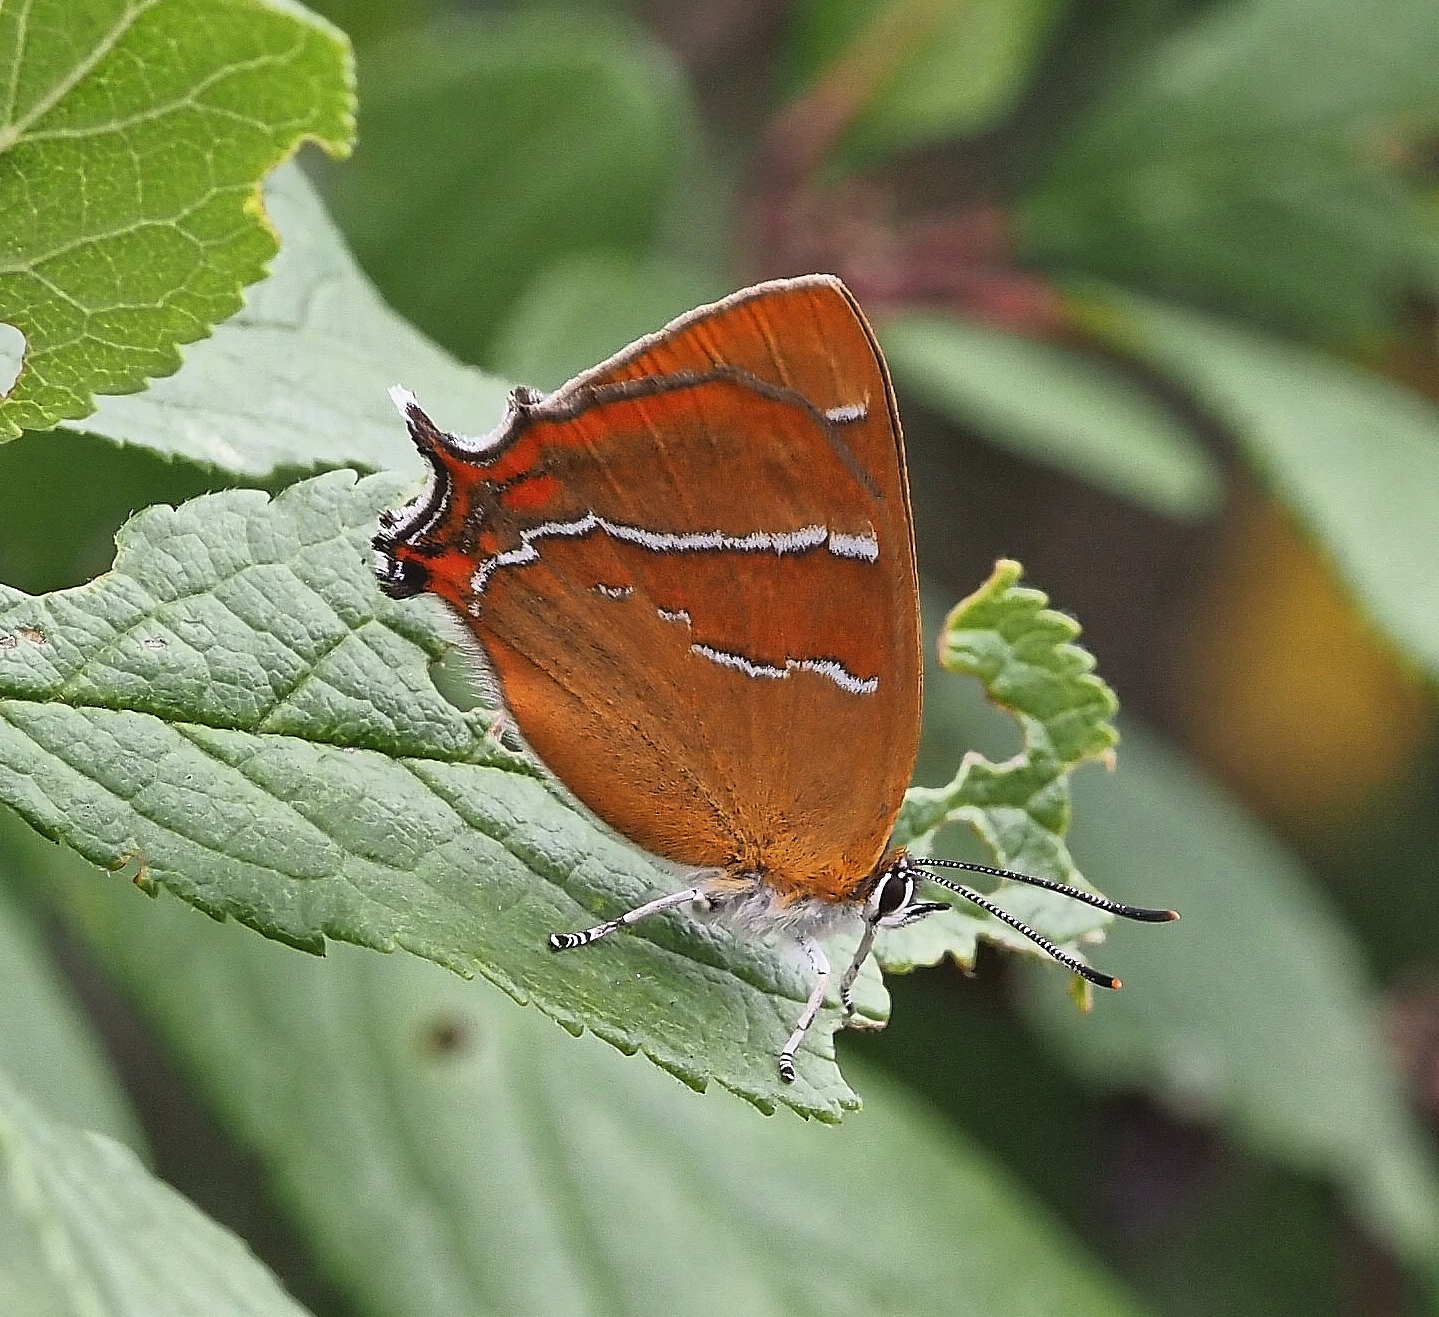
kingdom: Animalia
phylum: Arthropoda
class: Insecta
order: Lepidoptera
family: Lycaenidae
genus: Thecla
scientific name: Thecla betulae
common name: Brown hairstreak
